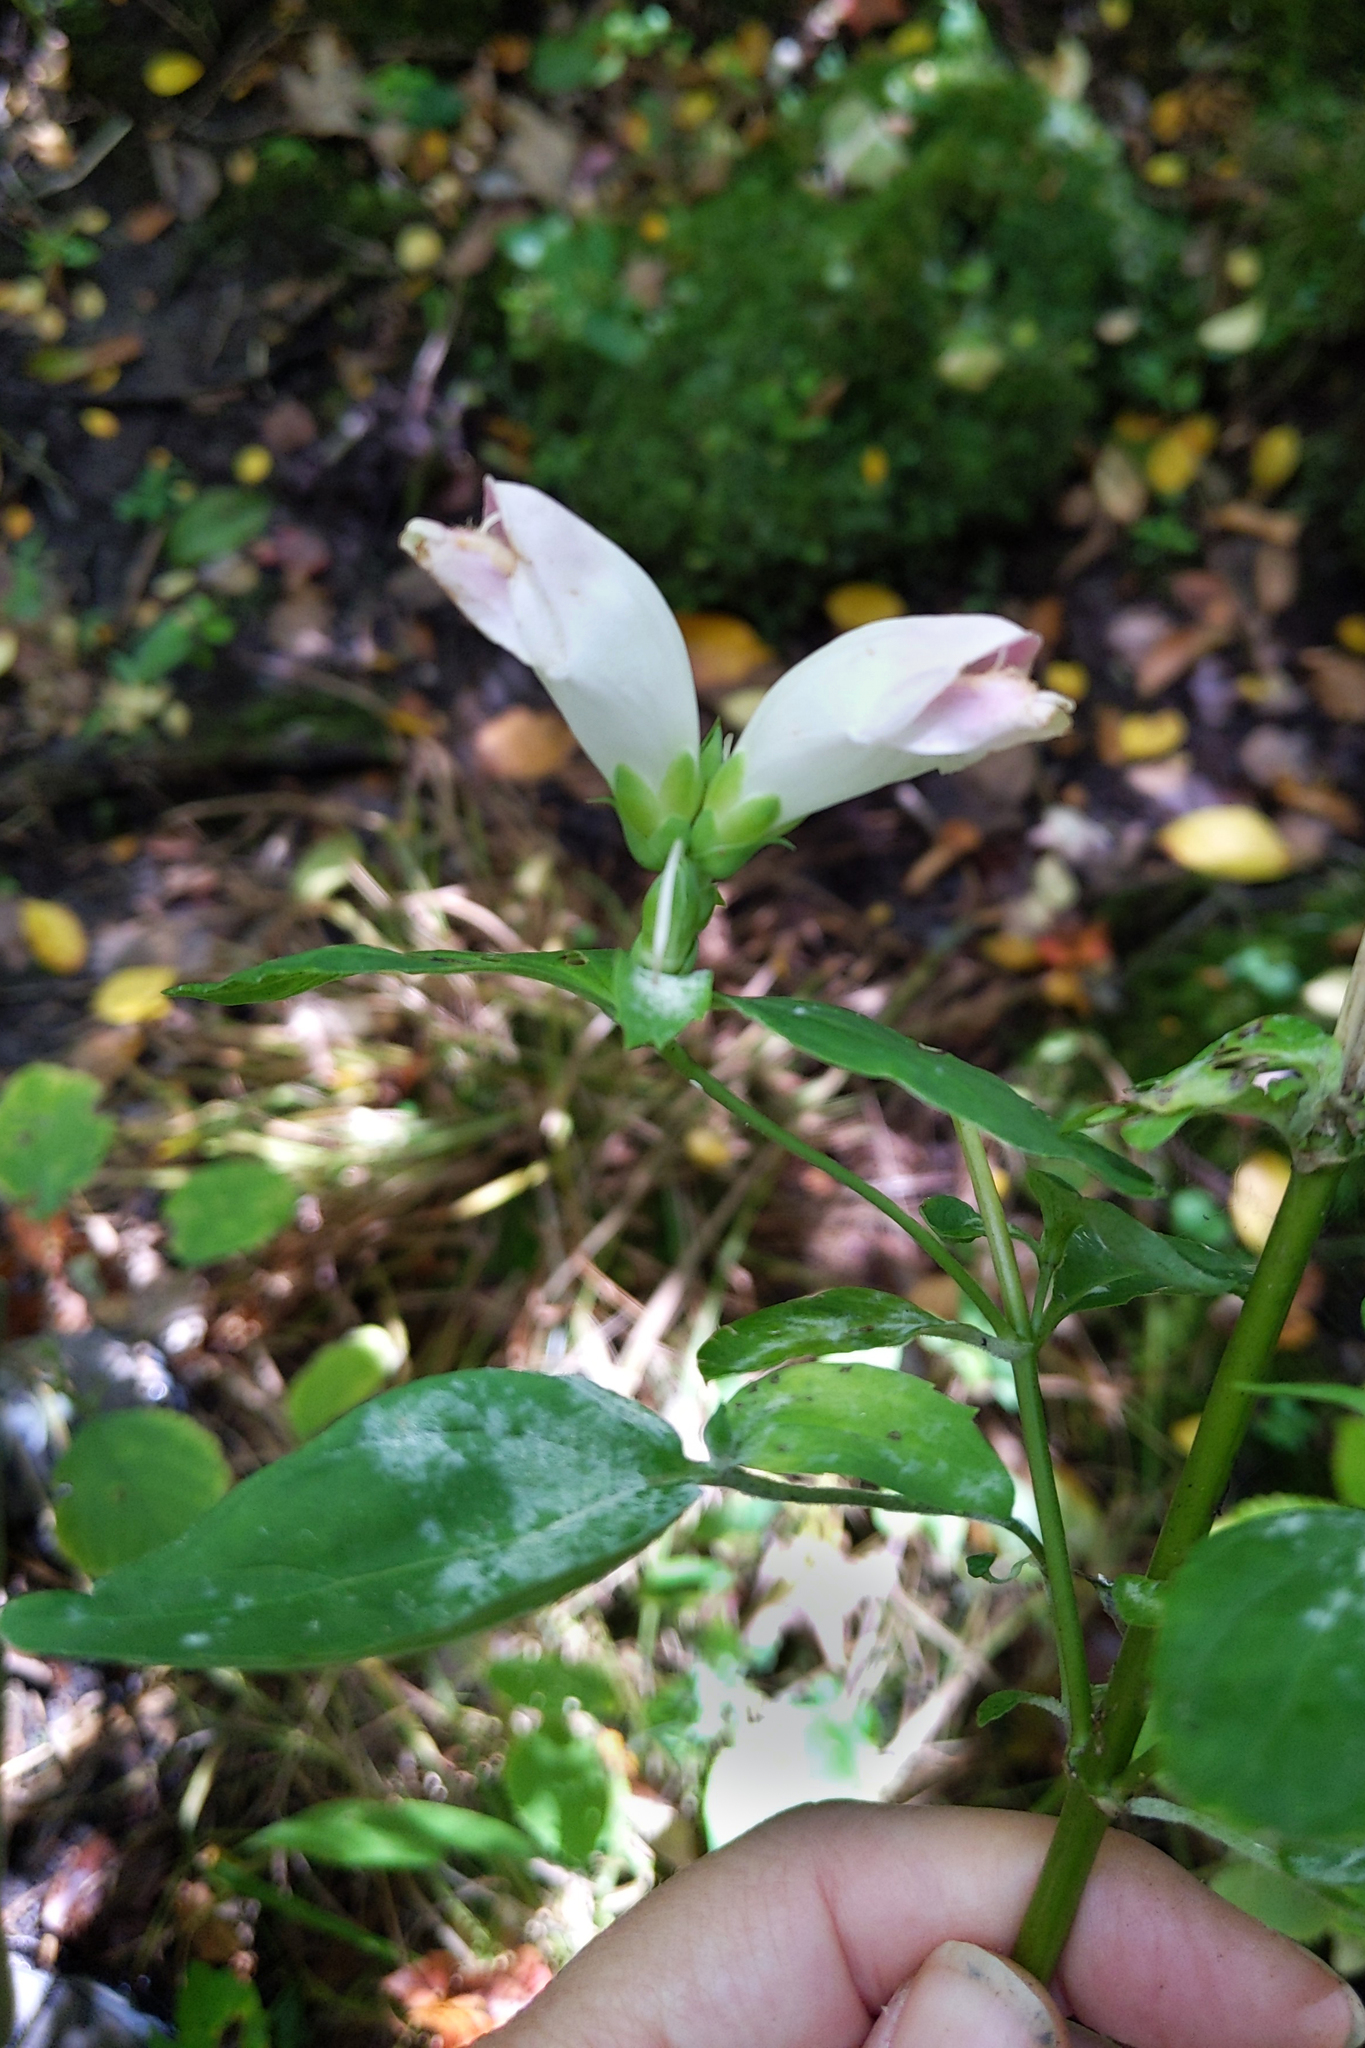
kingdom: Plantae
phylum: Tracheophyta
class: Magnoliopsida
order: Lamiales
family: Plantaginaceae
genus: Chelone
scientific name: Chelone glabra
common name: Snakehead
